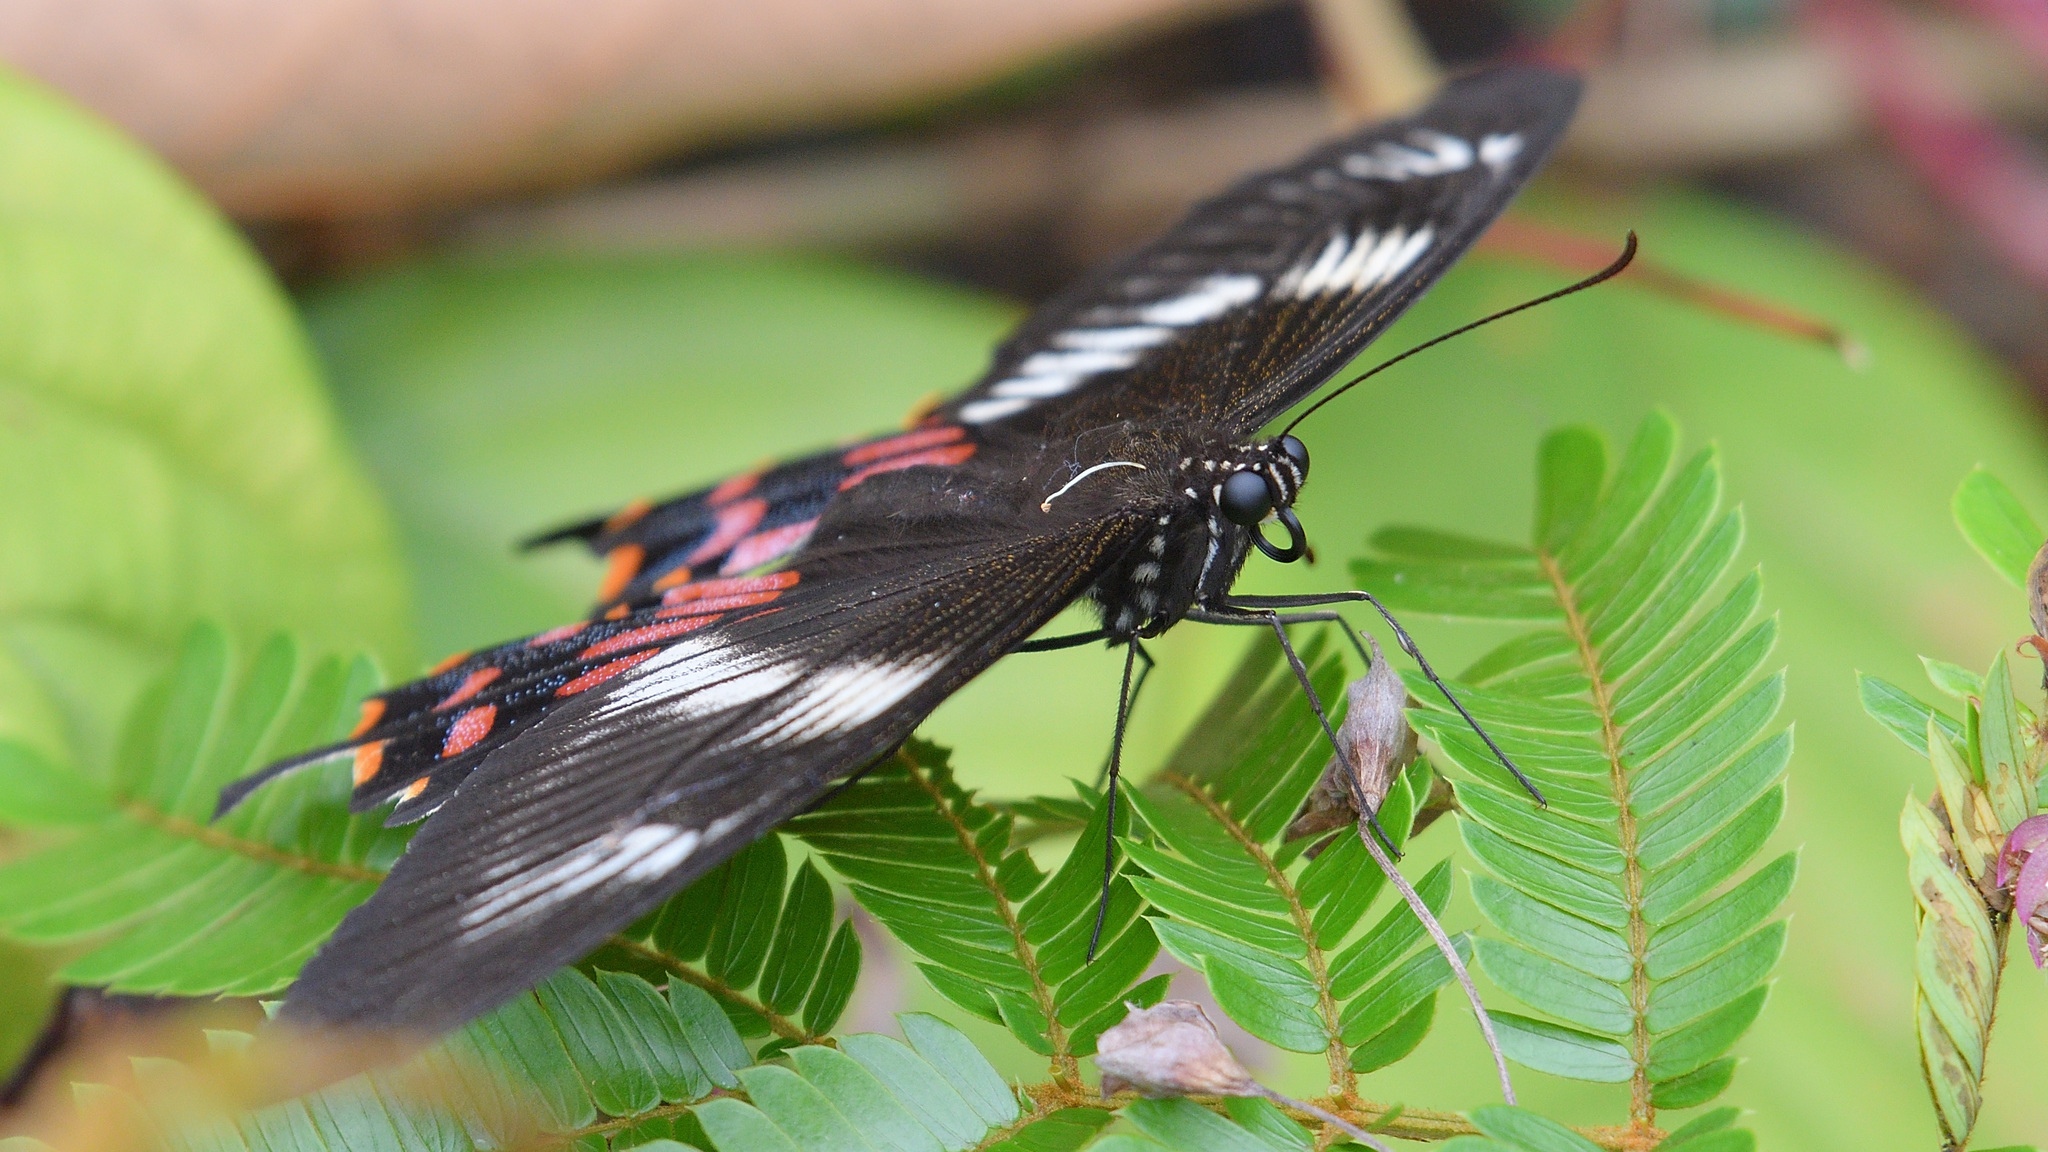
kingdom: Animalia
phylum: Arthropoda
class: Insecta
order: Lepidoptera
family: Papilionidae
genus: Papilio
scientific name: Papilio polytes
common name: Common mormon
